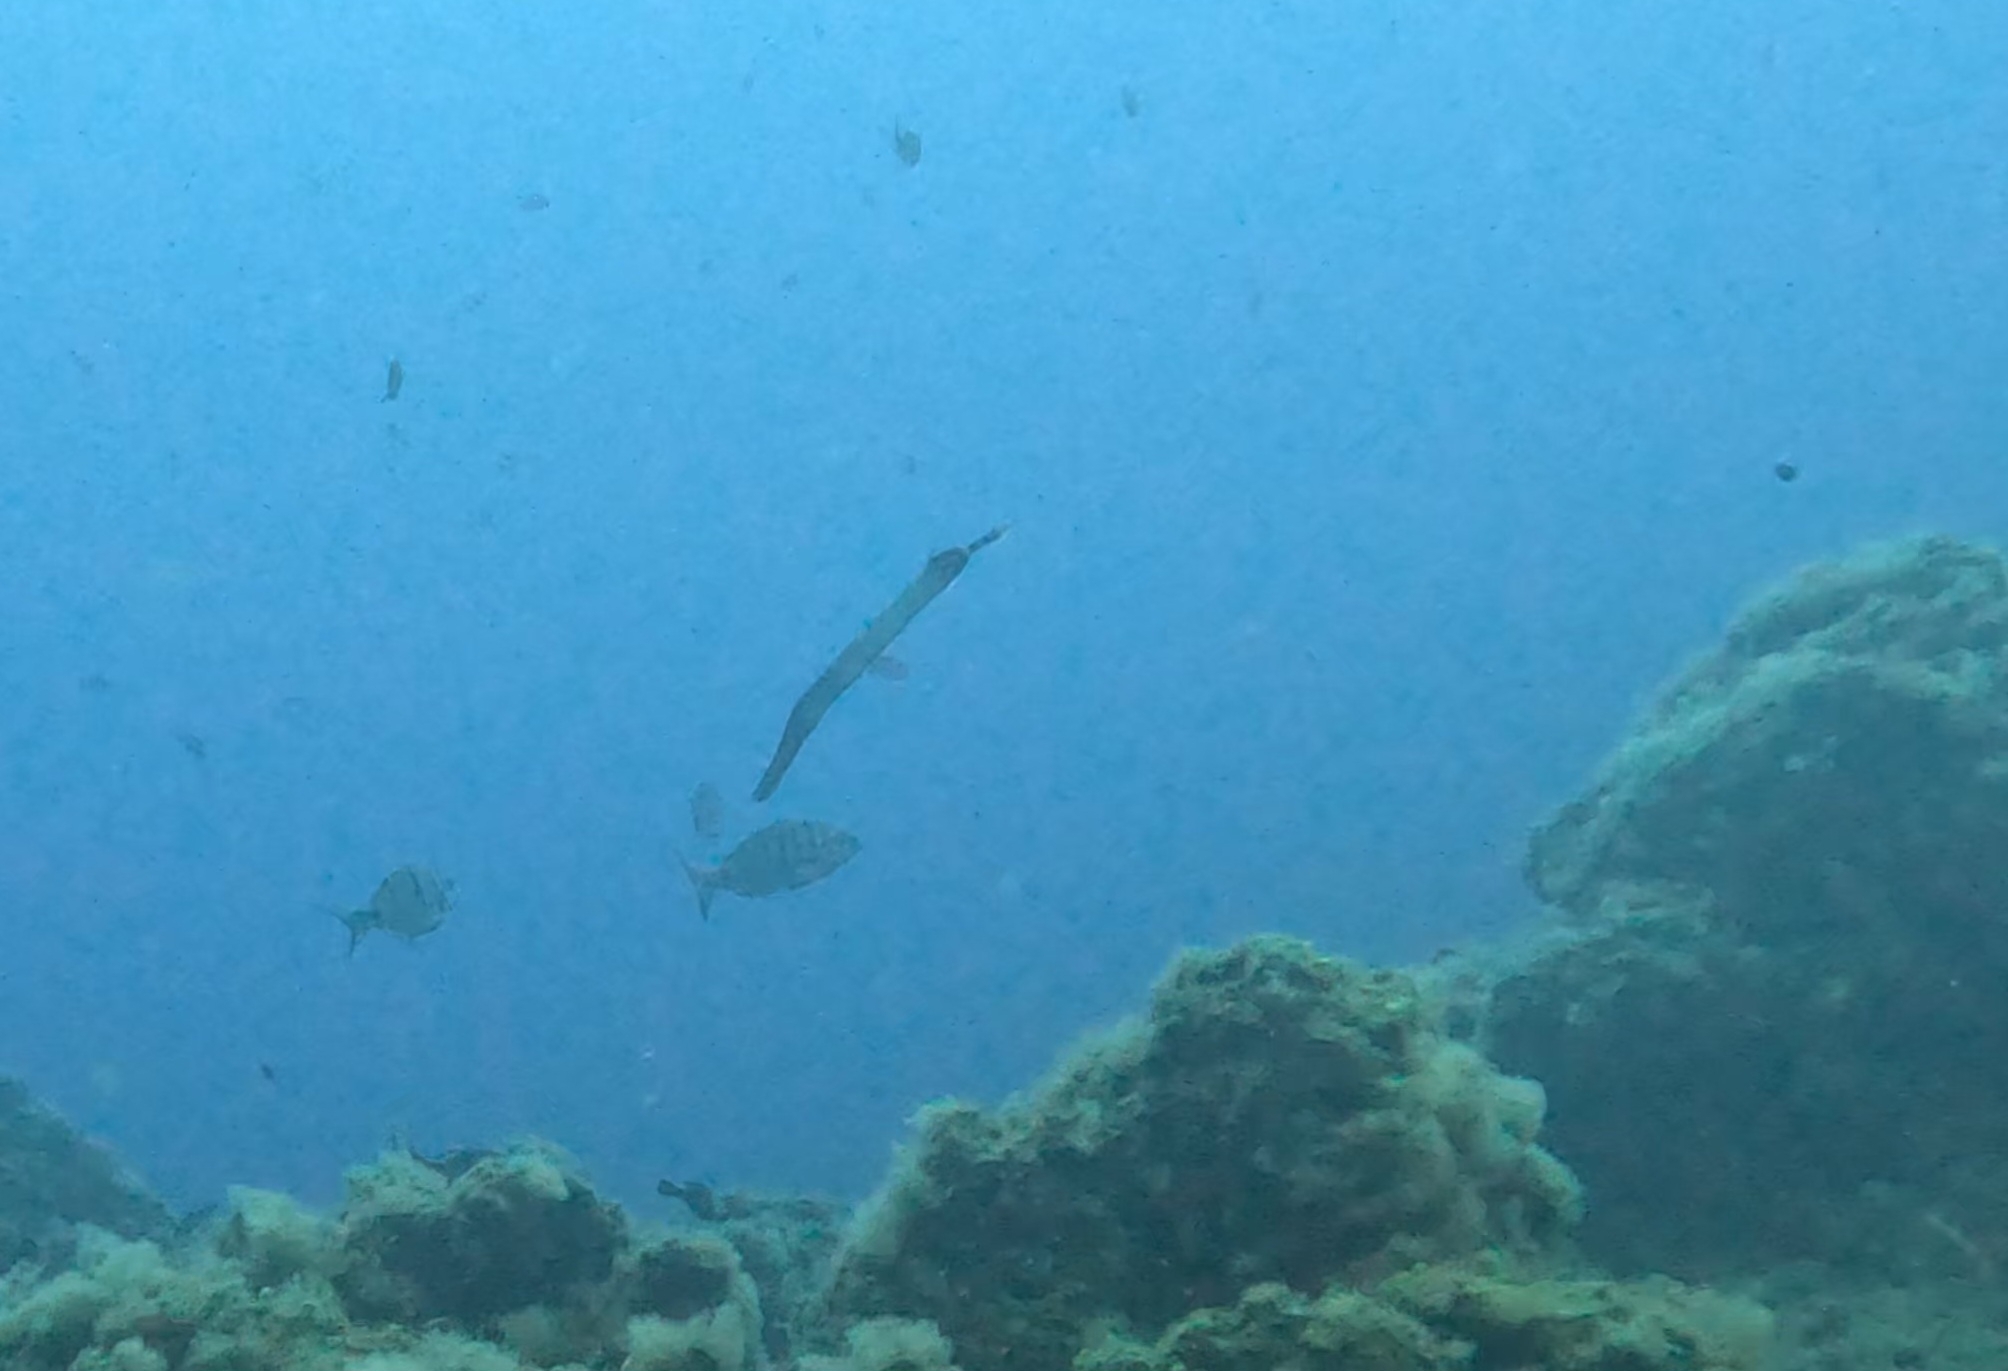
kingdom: Animalia
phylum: Chordata
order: Syngnathiformes
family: Aulostomidae
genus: Aulostomus
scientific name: Aulostomus strigosus
